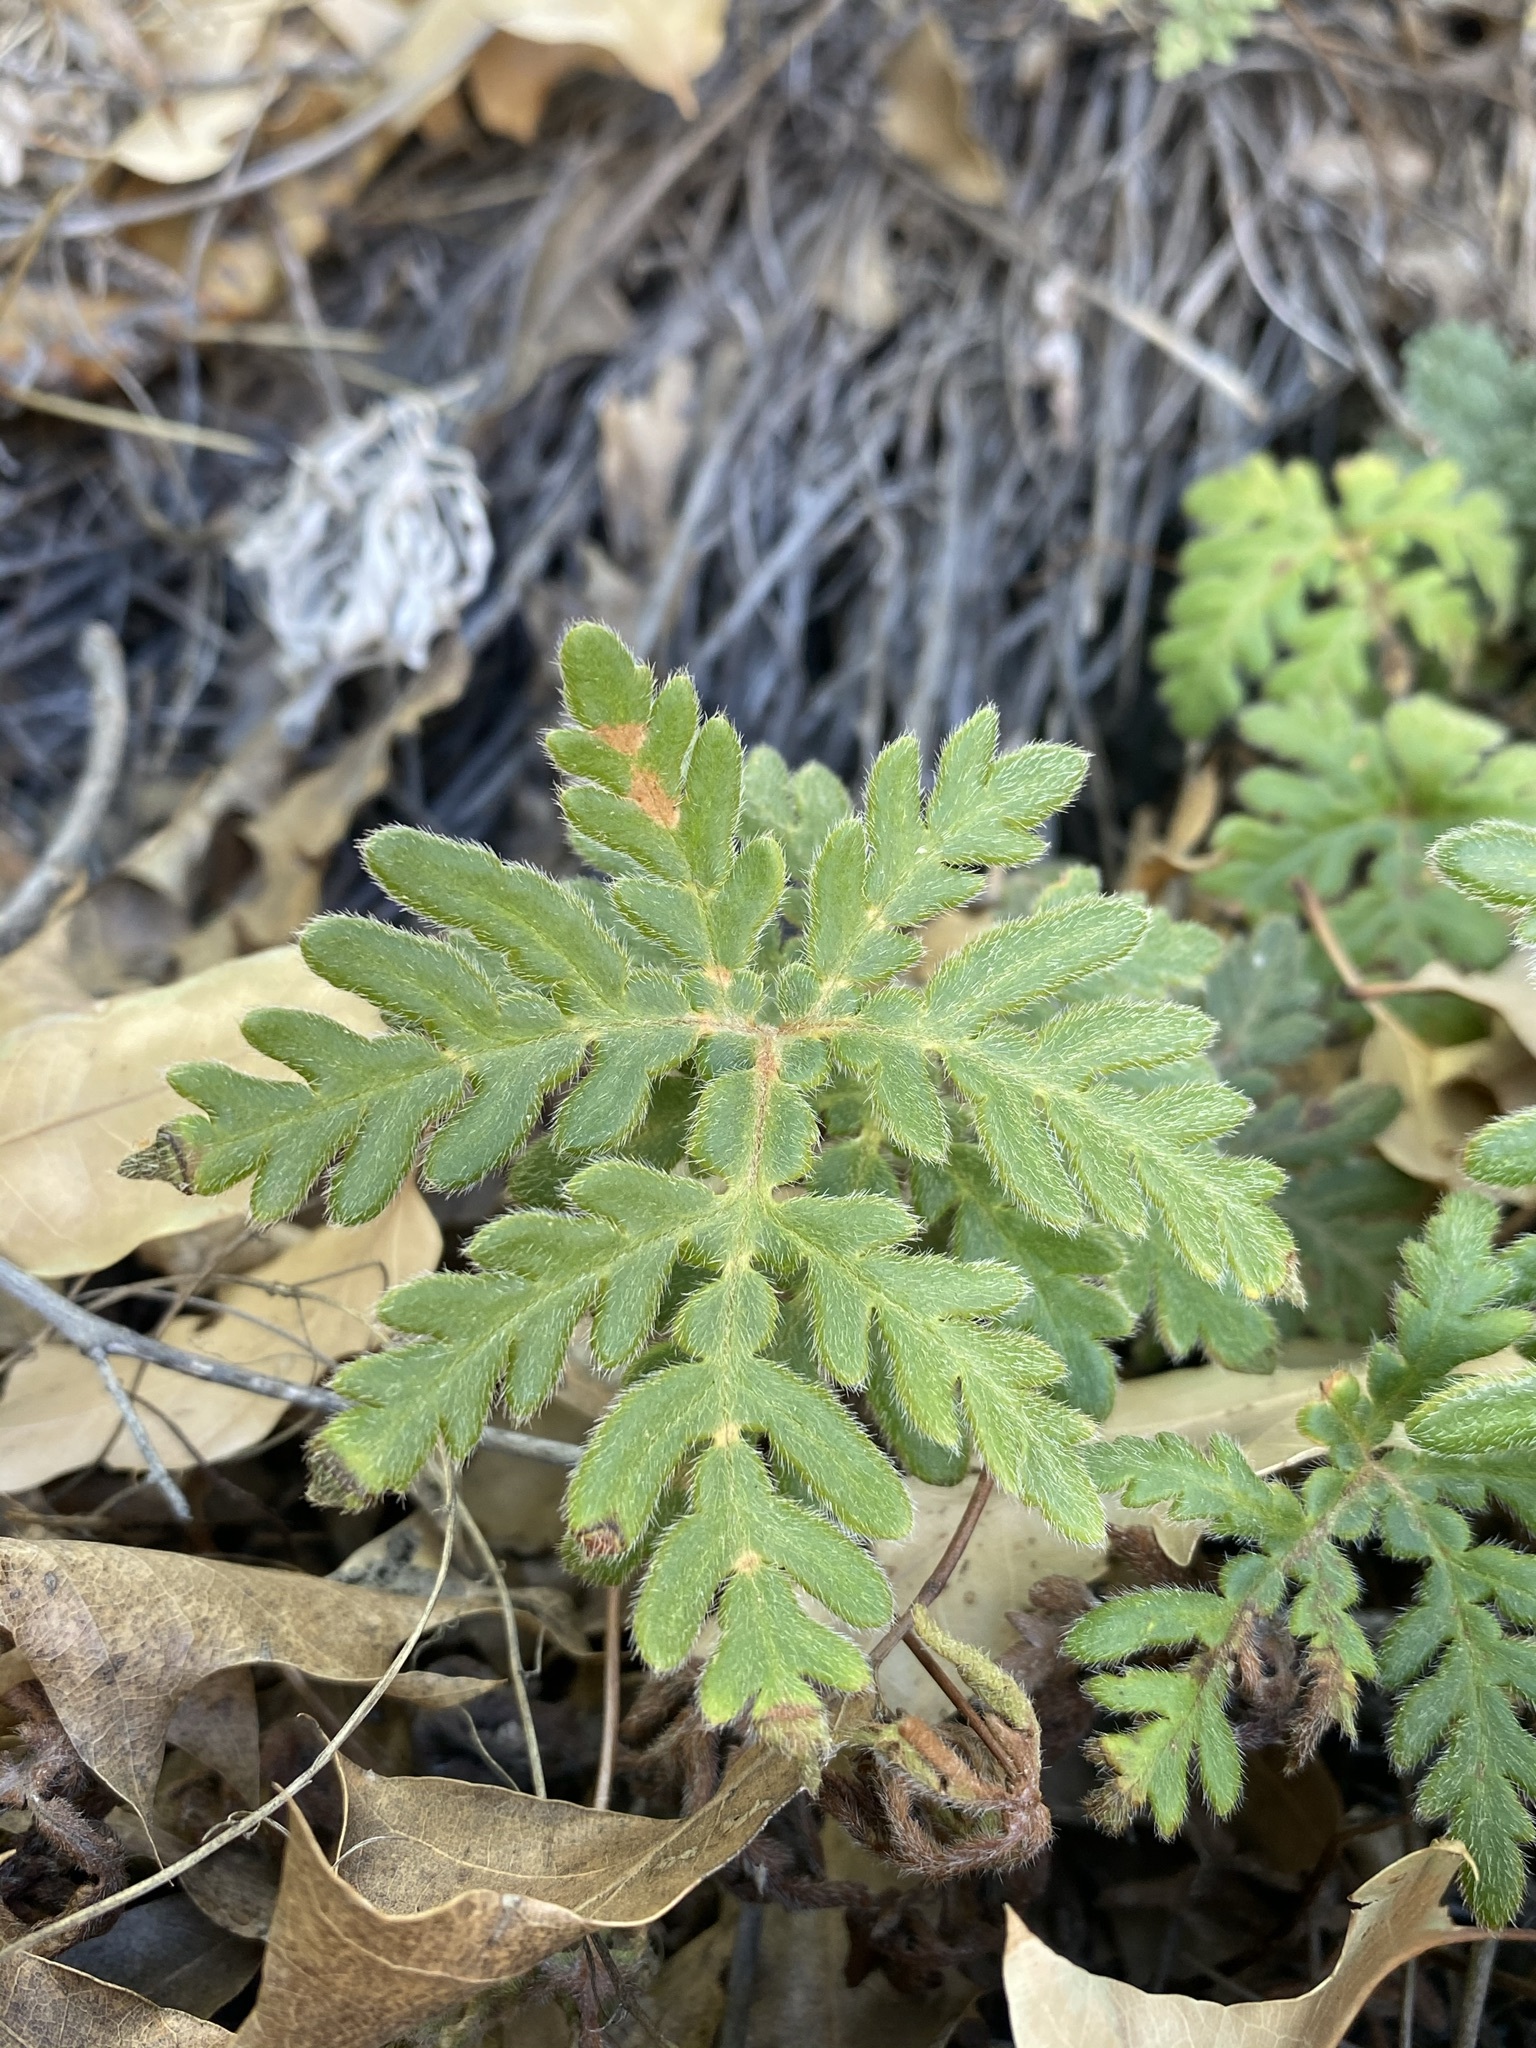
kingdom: Plantae
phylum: Tracheophyta
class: Polypodiopsida
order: Polypodiales
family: Pteridaceae
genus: Bommeria
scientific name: Bommeria hispida
